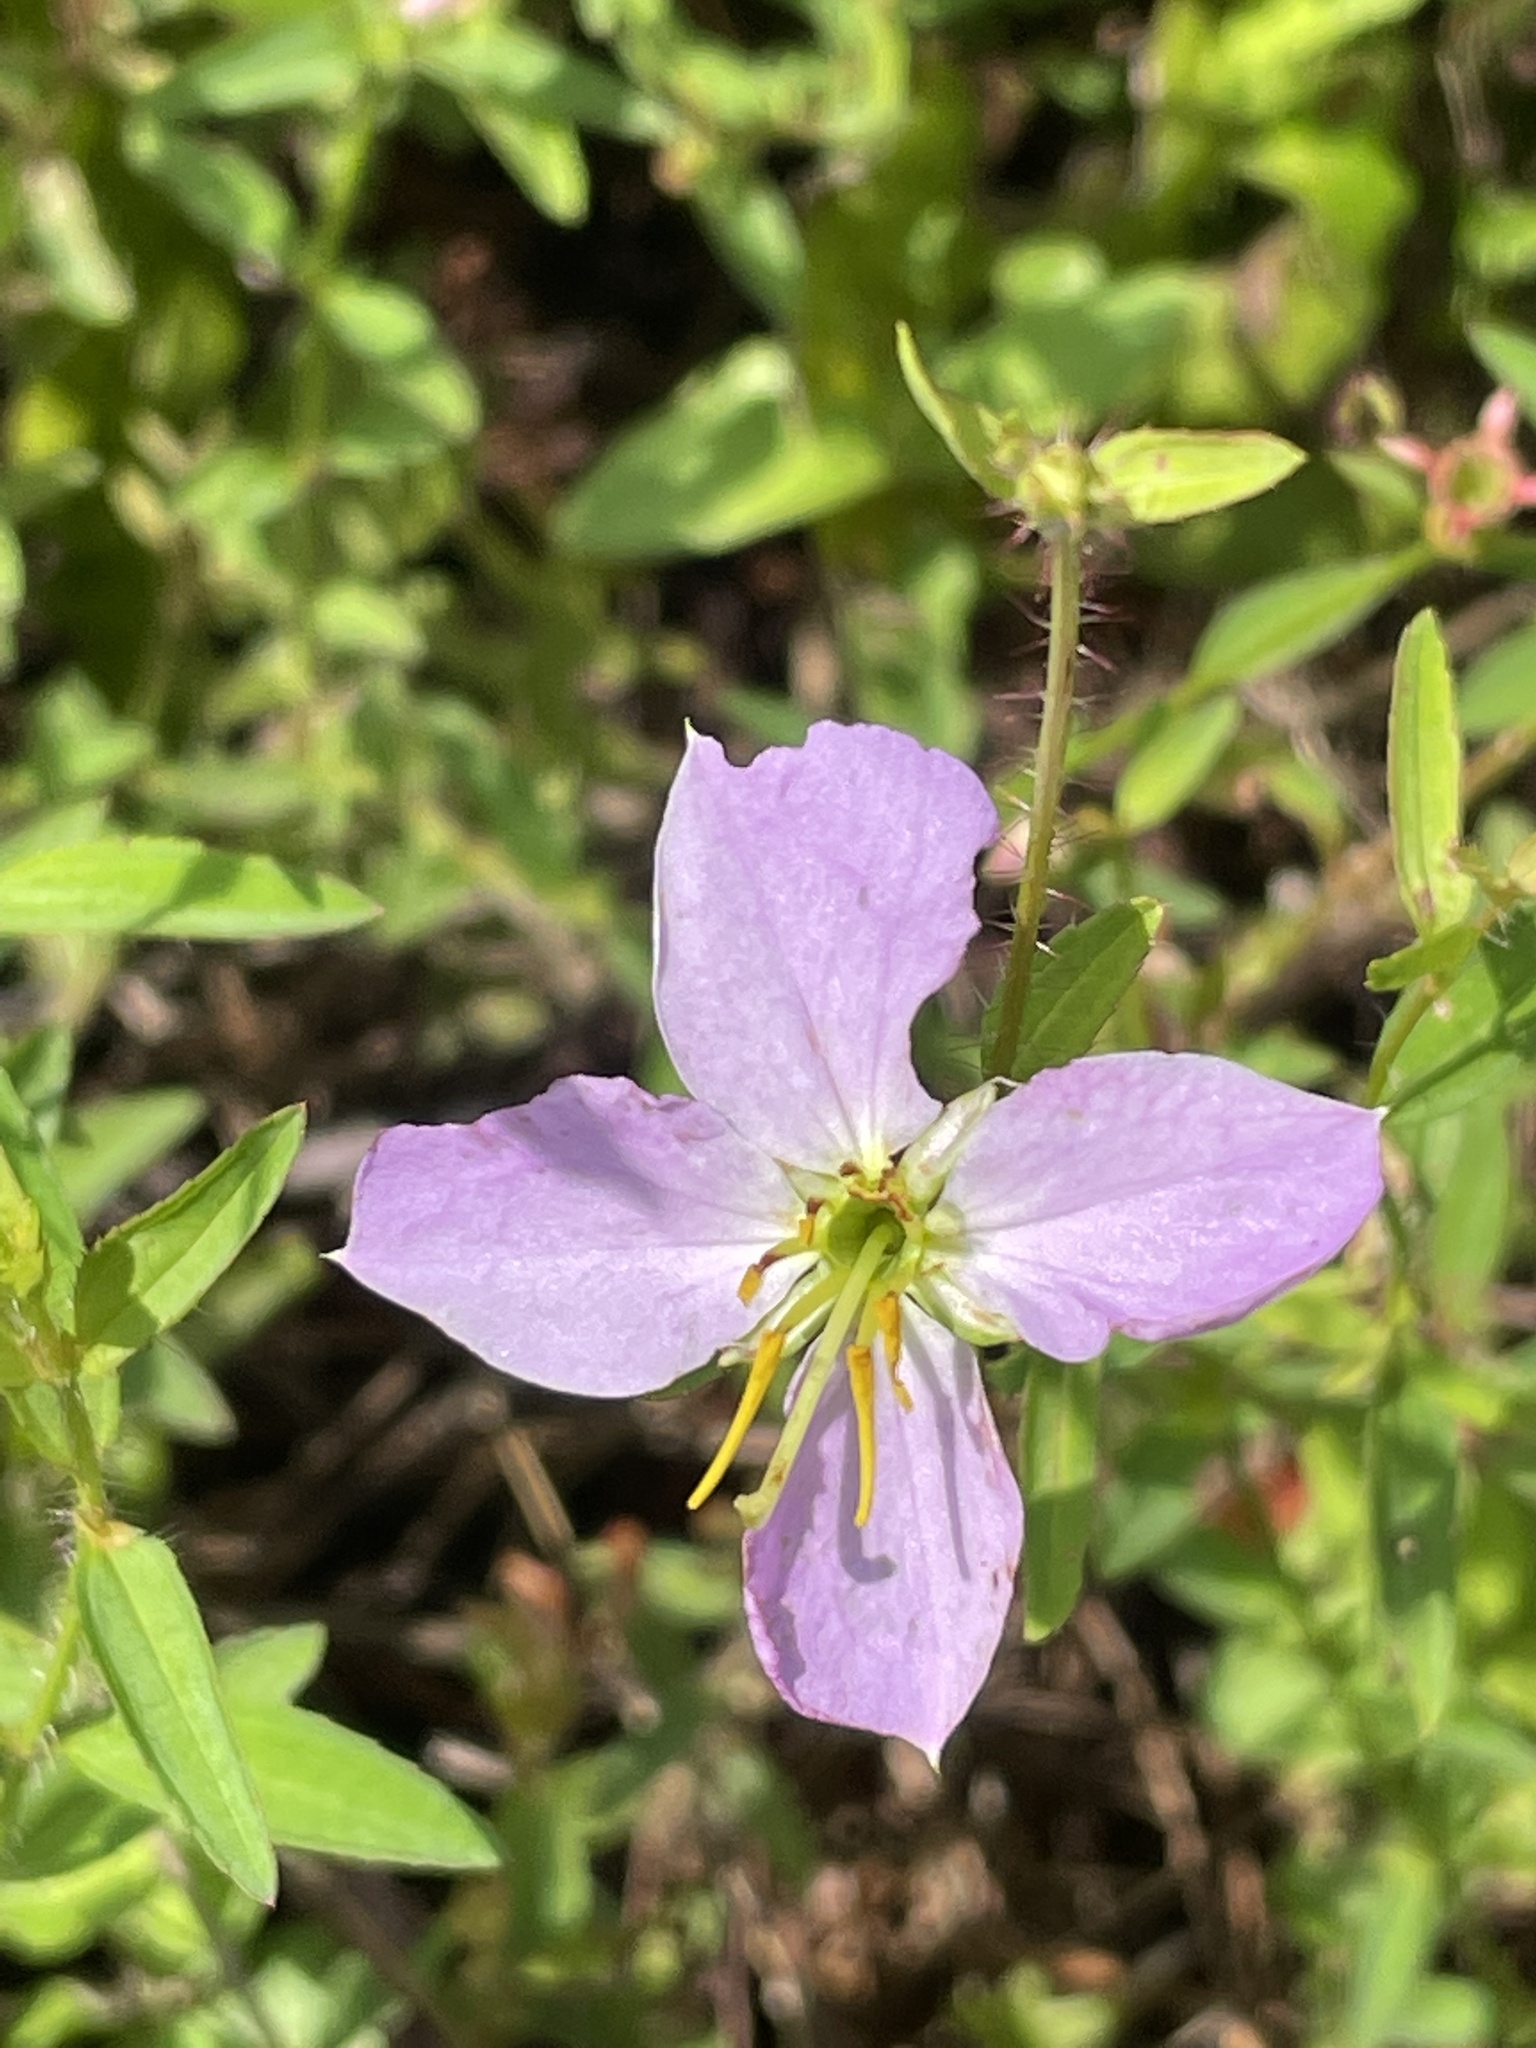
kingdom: Plantae
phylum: Tracheophyta
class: Magnoliopsida
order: Myrtales
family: Melastomataceae
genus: Rhexia
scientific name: Rhexia mariana
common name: Dull meadow-pitcher
